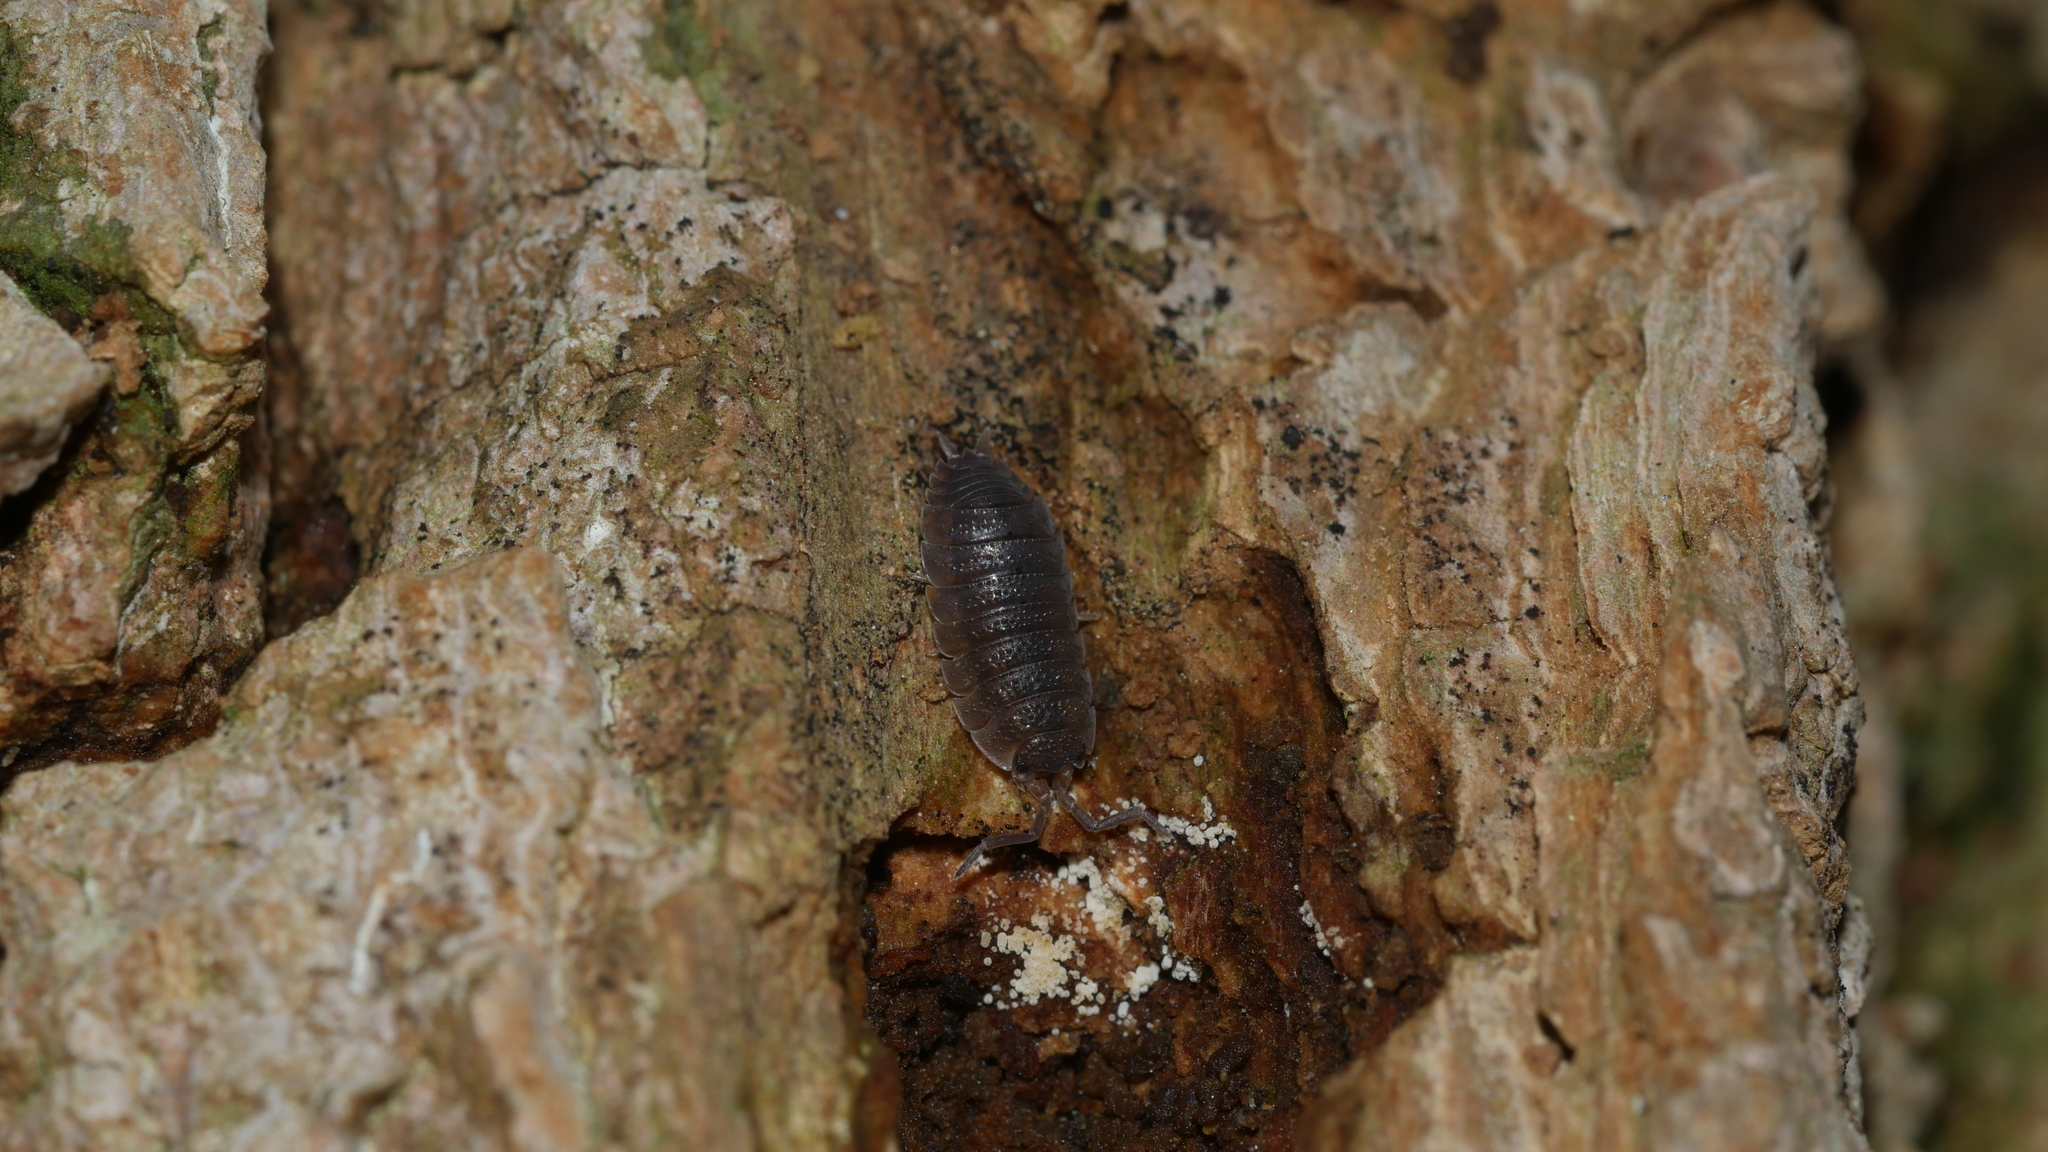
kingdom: Animalia
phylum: Arthropoda
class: Malacostraca
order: Isopoda
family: Porcellionidae
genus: Porcellio
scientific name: Porcellio scaber
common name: Common rough woodlouse
